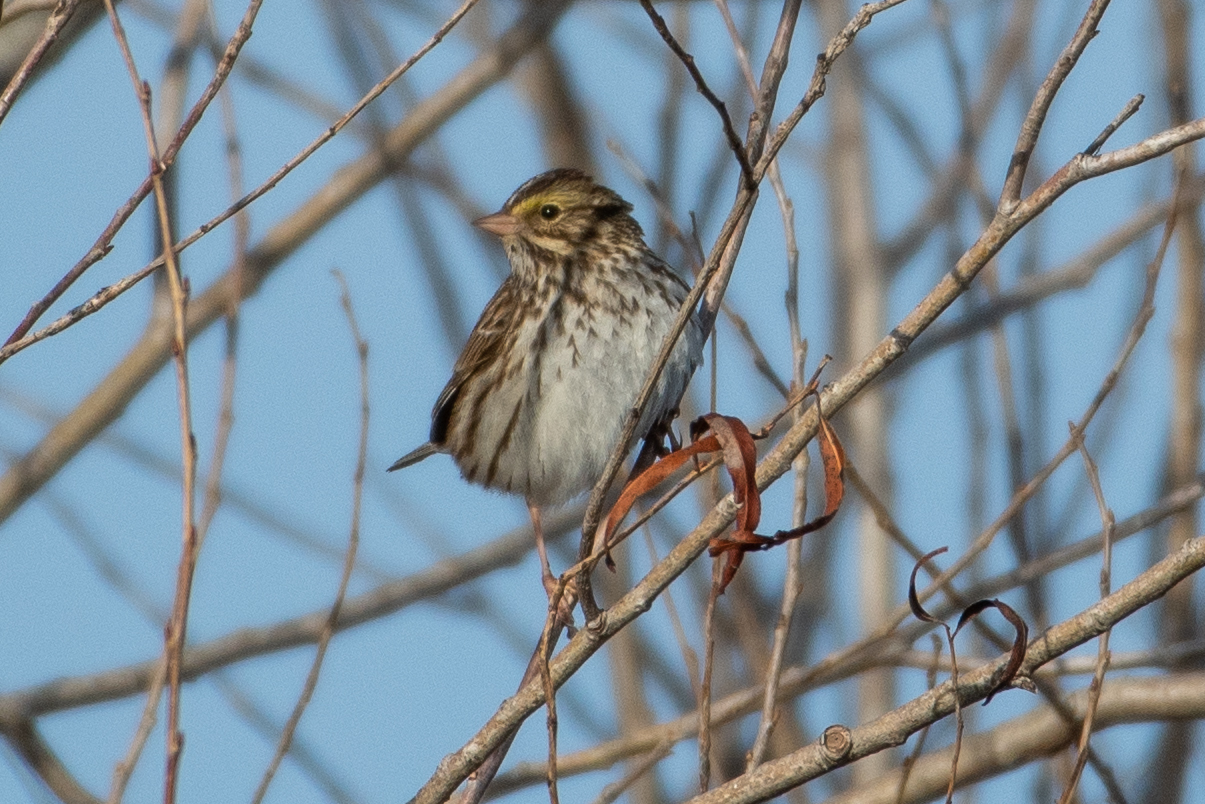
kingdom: Animalia
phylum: Chordata
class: Aves
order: Passeriformes
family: Passerellidae
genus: Passerculus
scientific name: Passerculus sandwichensis
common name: Savannah sparrow
